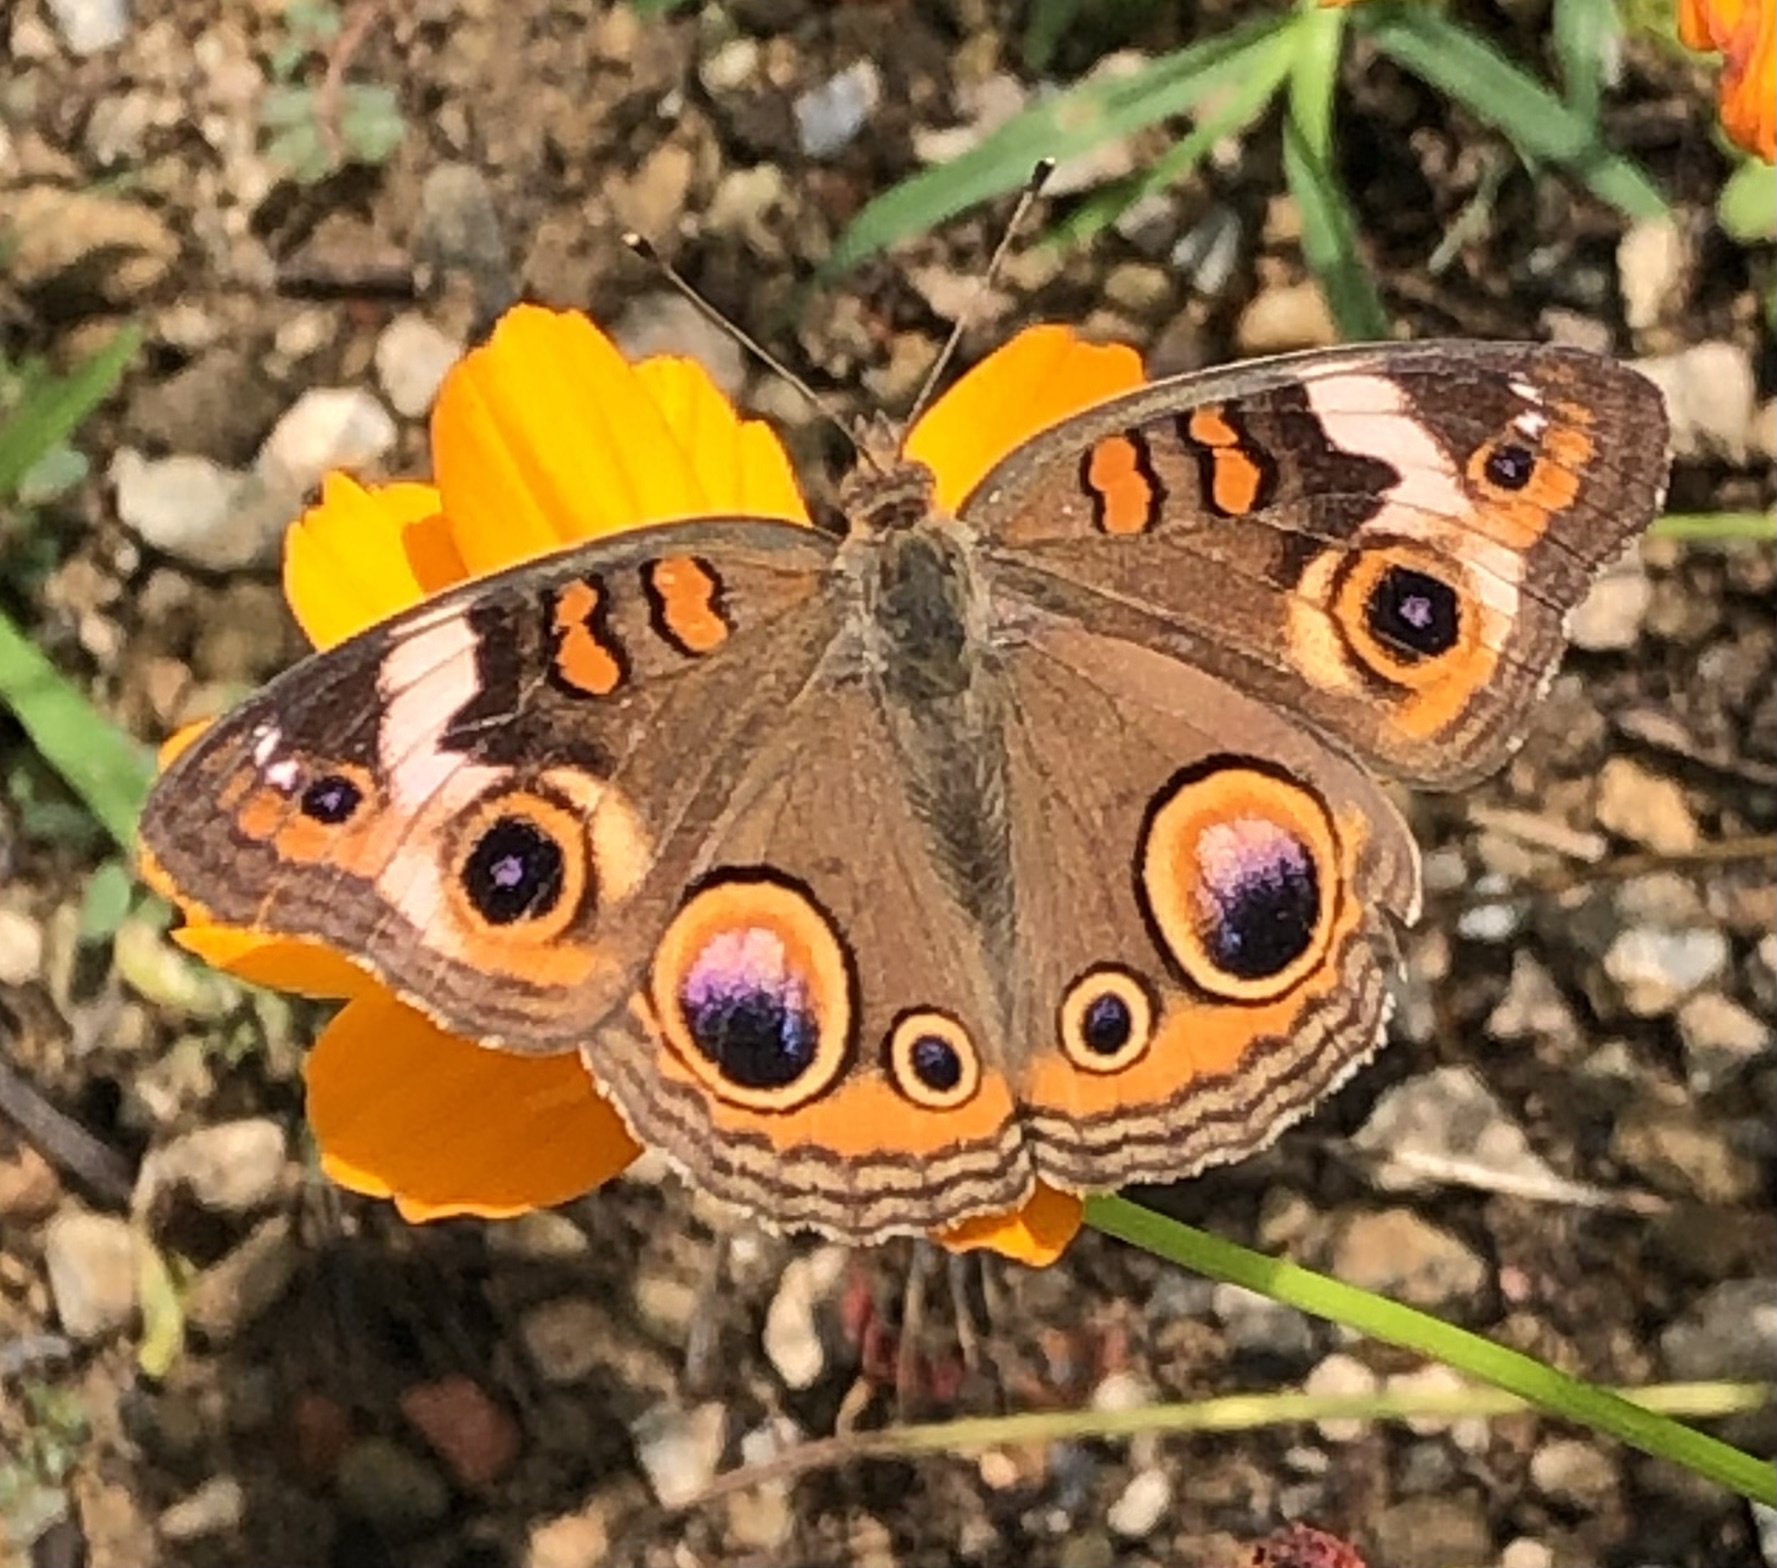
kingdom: Animalia
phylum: Arthropoda
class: Insecta
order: Lepidoptera
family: Nymphalidae
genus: Junonia
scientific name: Junonia coenia
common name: Common buckeye
